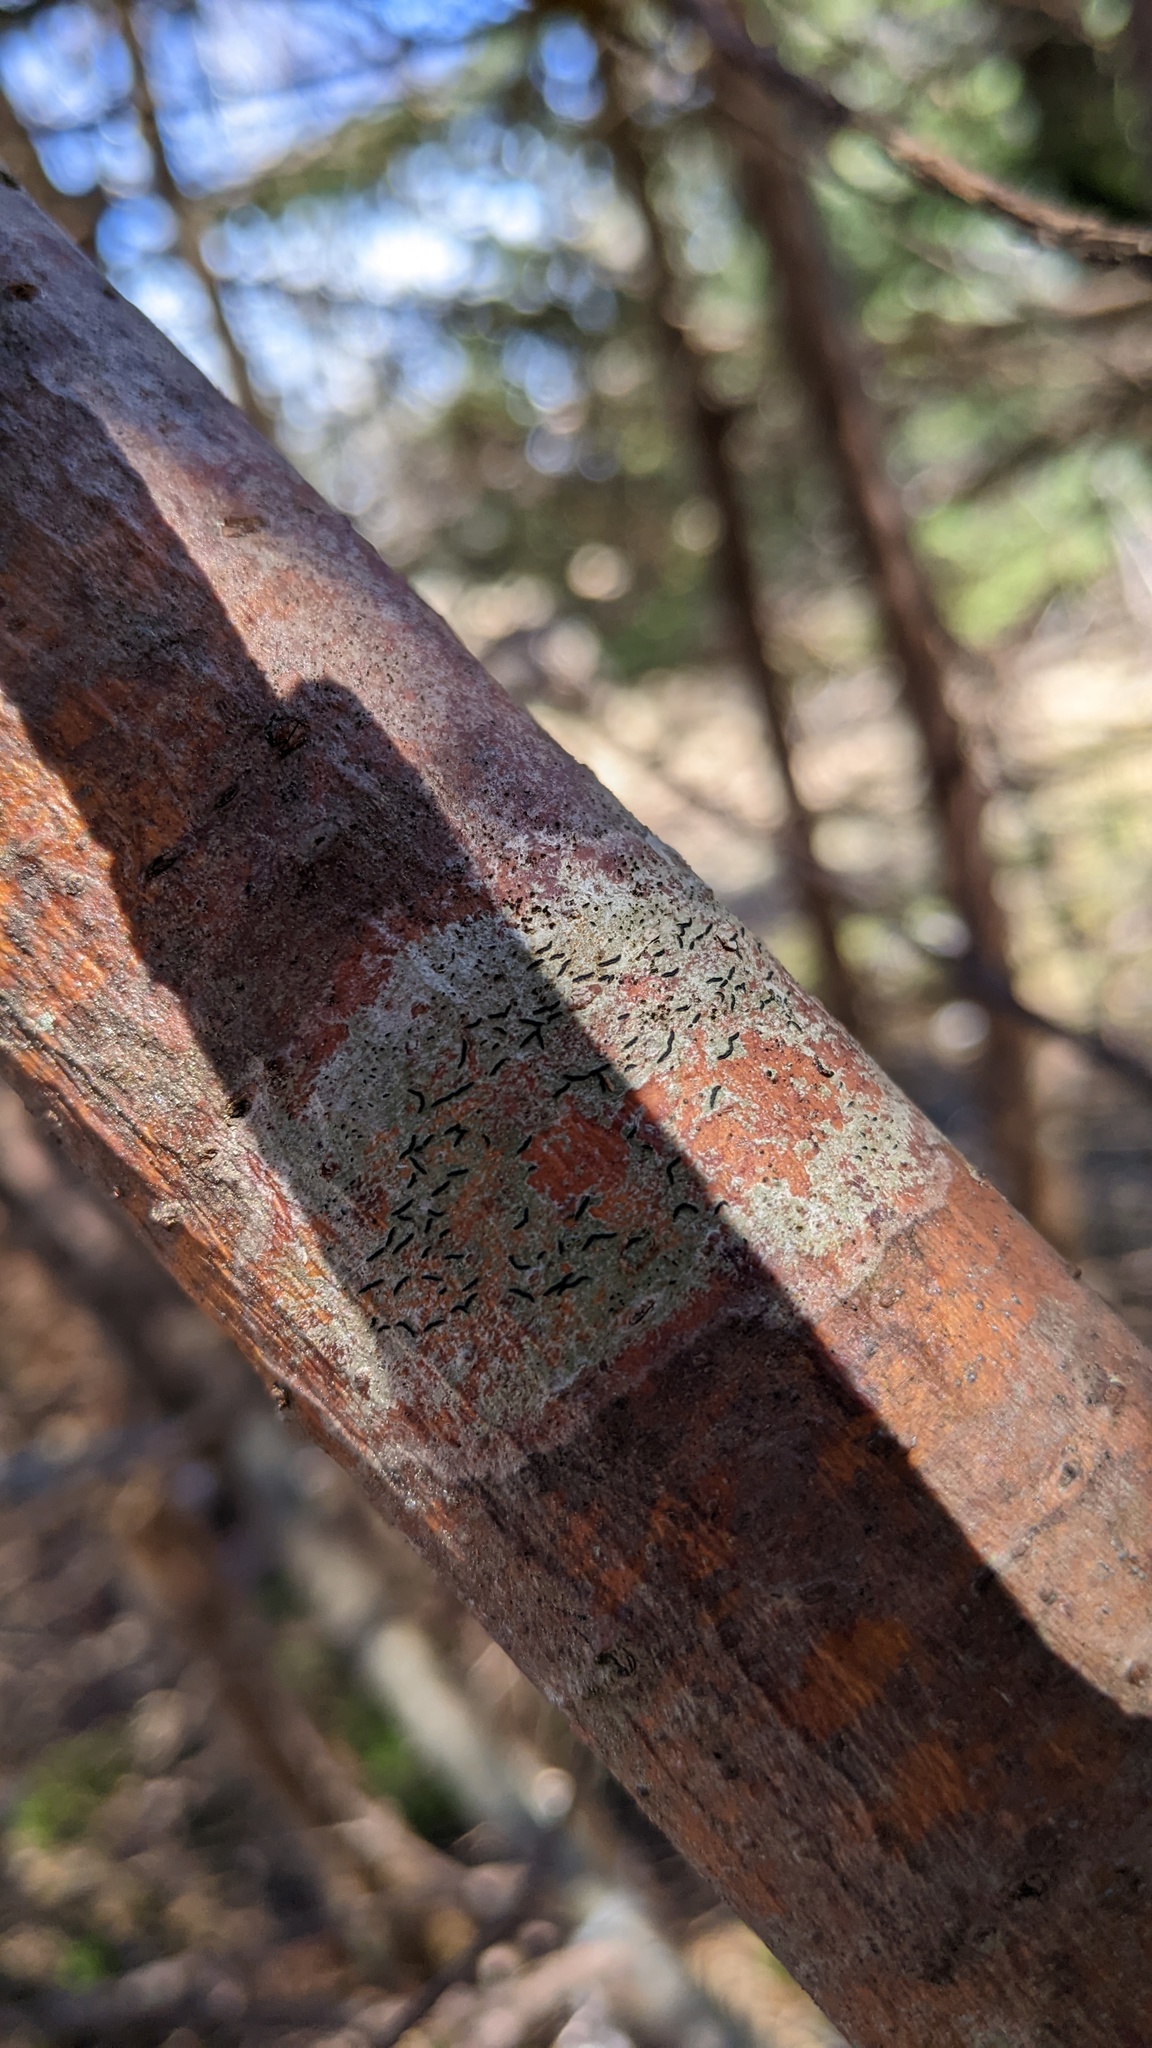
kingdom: Fungi
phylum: Ascomycota
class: Lecanoromycetes
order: Ostropales
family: Graphidaceae
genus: Graphis
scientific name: Graphis scripta
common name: Script lichen
